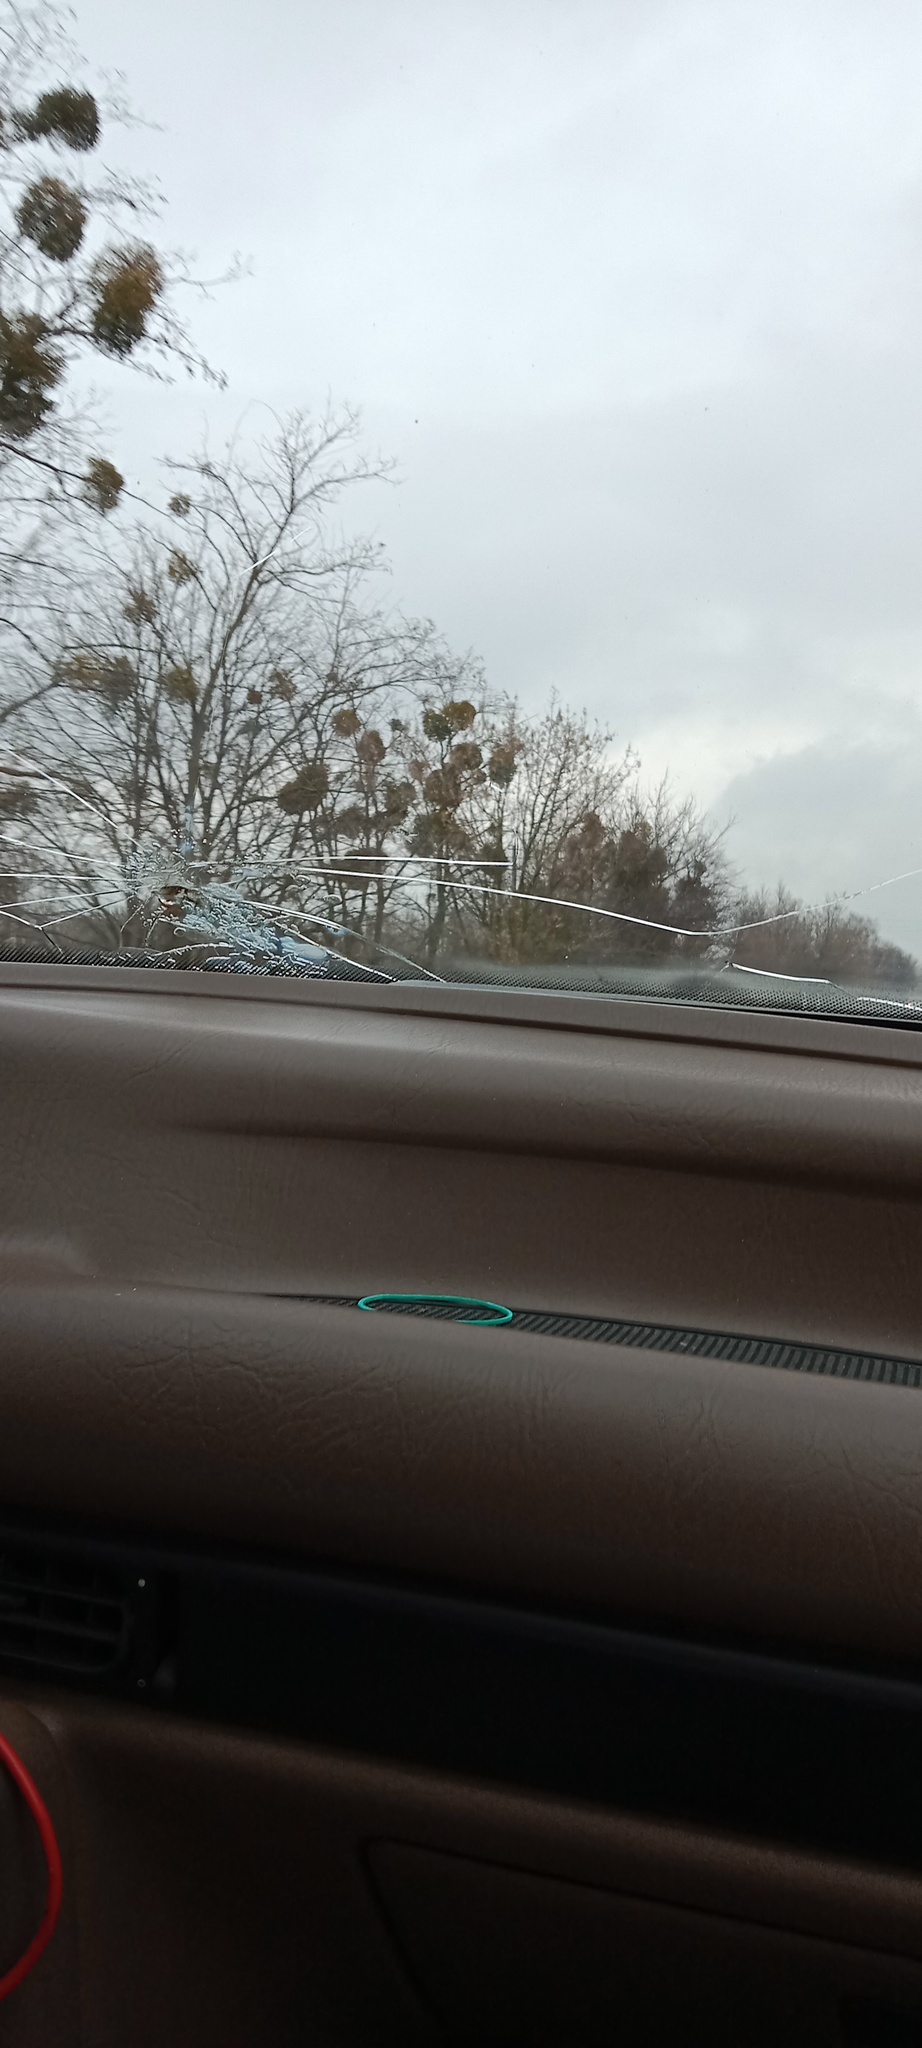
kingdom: Plantae
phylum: Tracheophyta
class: Magnoliopsida
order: Santalales
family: Viscaceae
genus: Viscum
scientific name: Viscum album
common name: Mistletoe
